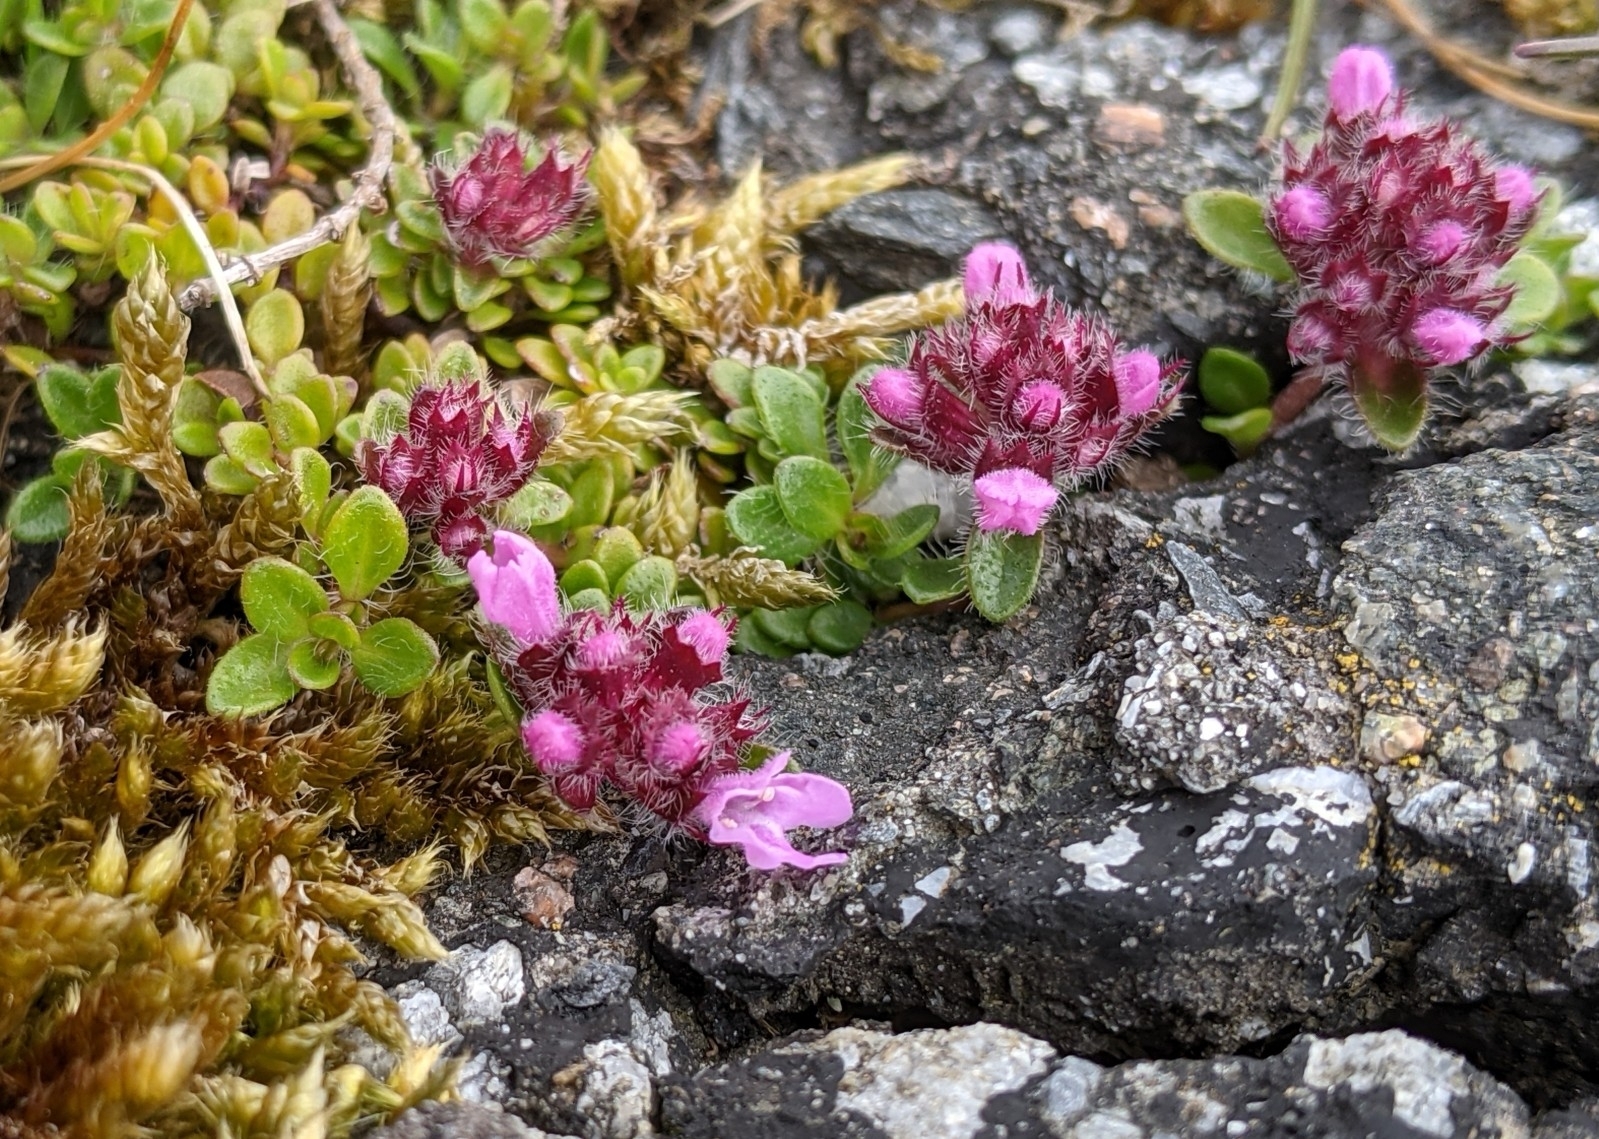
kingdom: Plantae
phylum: Tracheophyta
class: Magnoliopsida
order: Lamiales
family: Lamiaceae
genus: Thymus
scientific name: Thymus praecox
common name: Wild thyme
